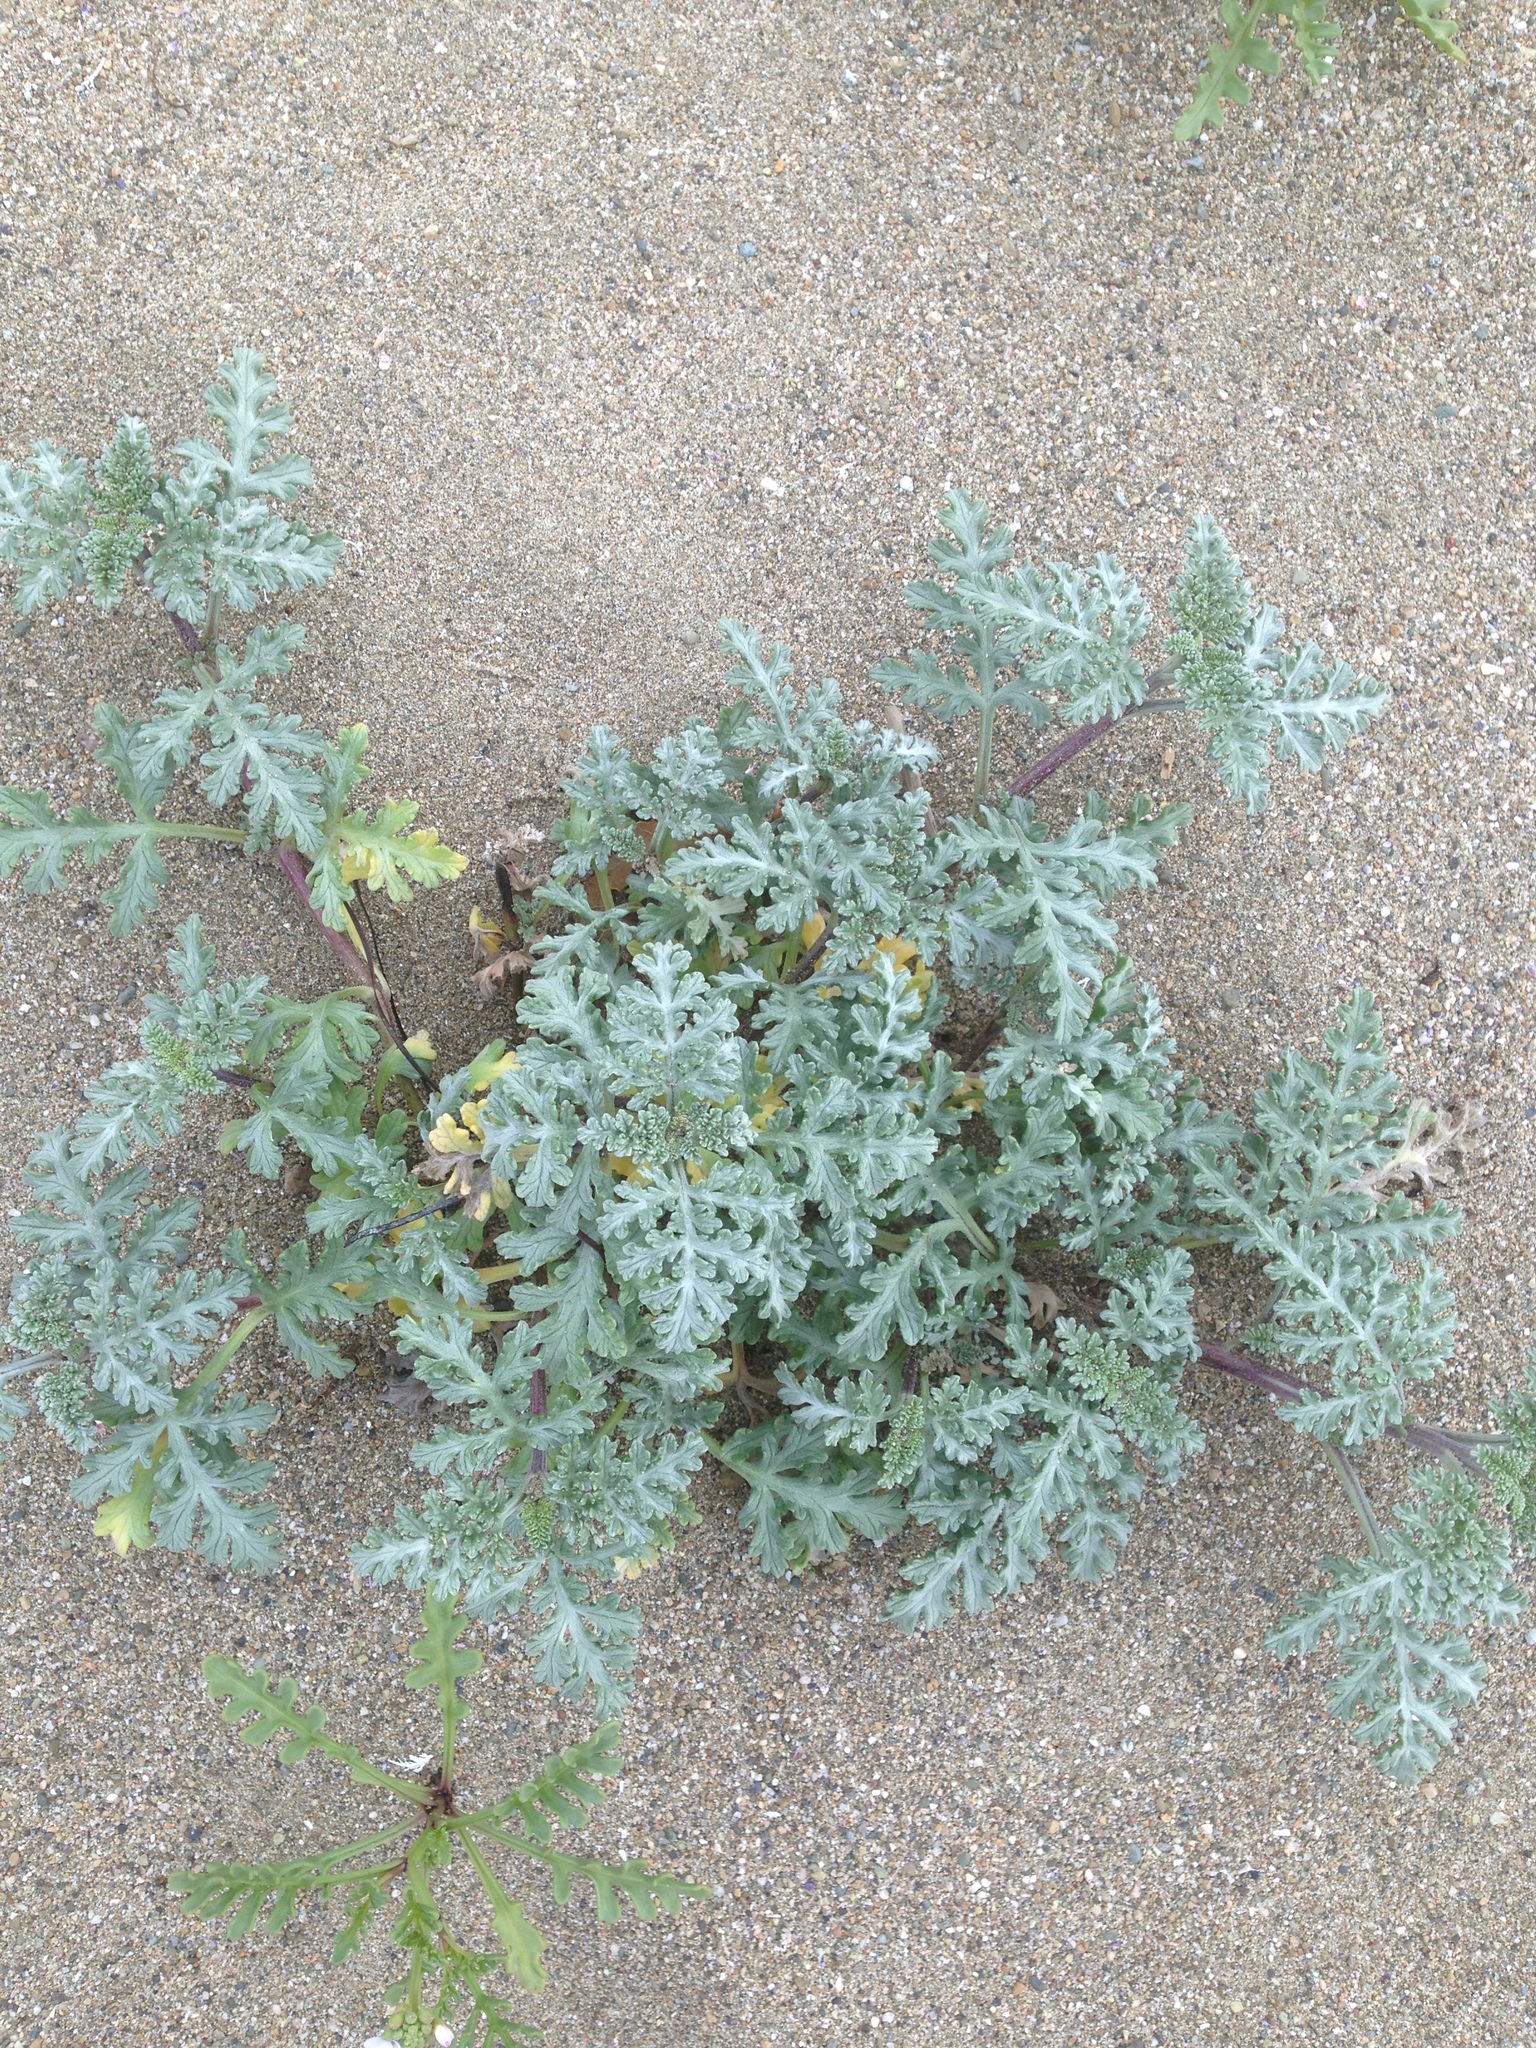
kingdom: Plantae
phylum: Tracheophyta
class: Magnoliopsida
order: Asterales
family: Asteraceae
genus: Ambrosia
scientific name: Ambrosia chamissonis
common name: Beachbur
